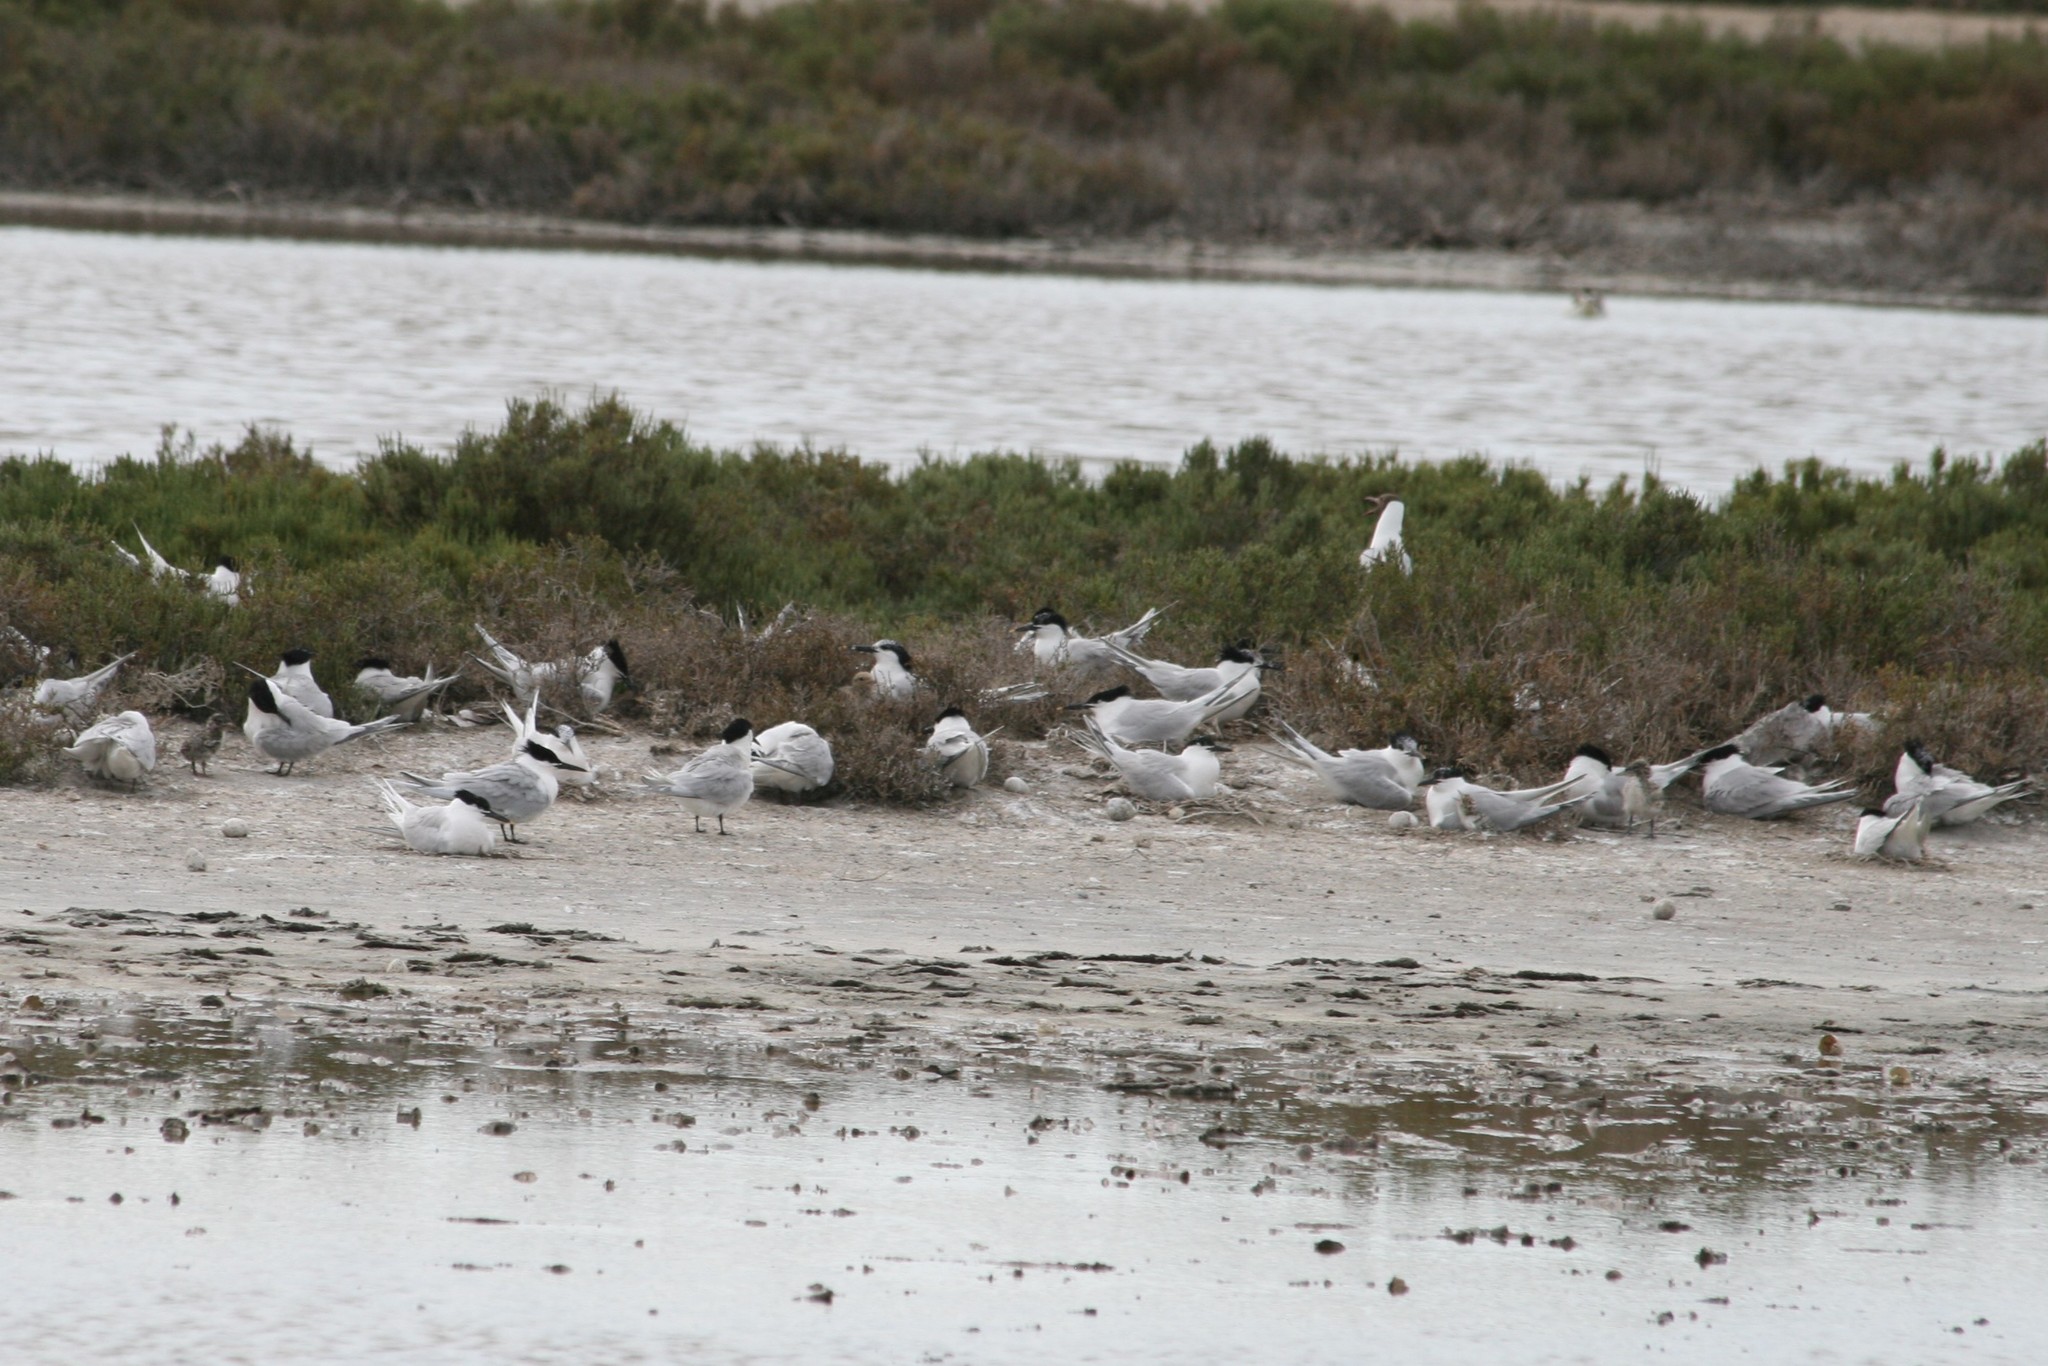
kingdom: Animalia
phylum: Chordata
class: Aves
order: Charadriiformes
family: Laridae
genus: Thalasseus
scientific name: Thalasseus sandvicensis
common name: Sandwich tern
